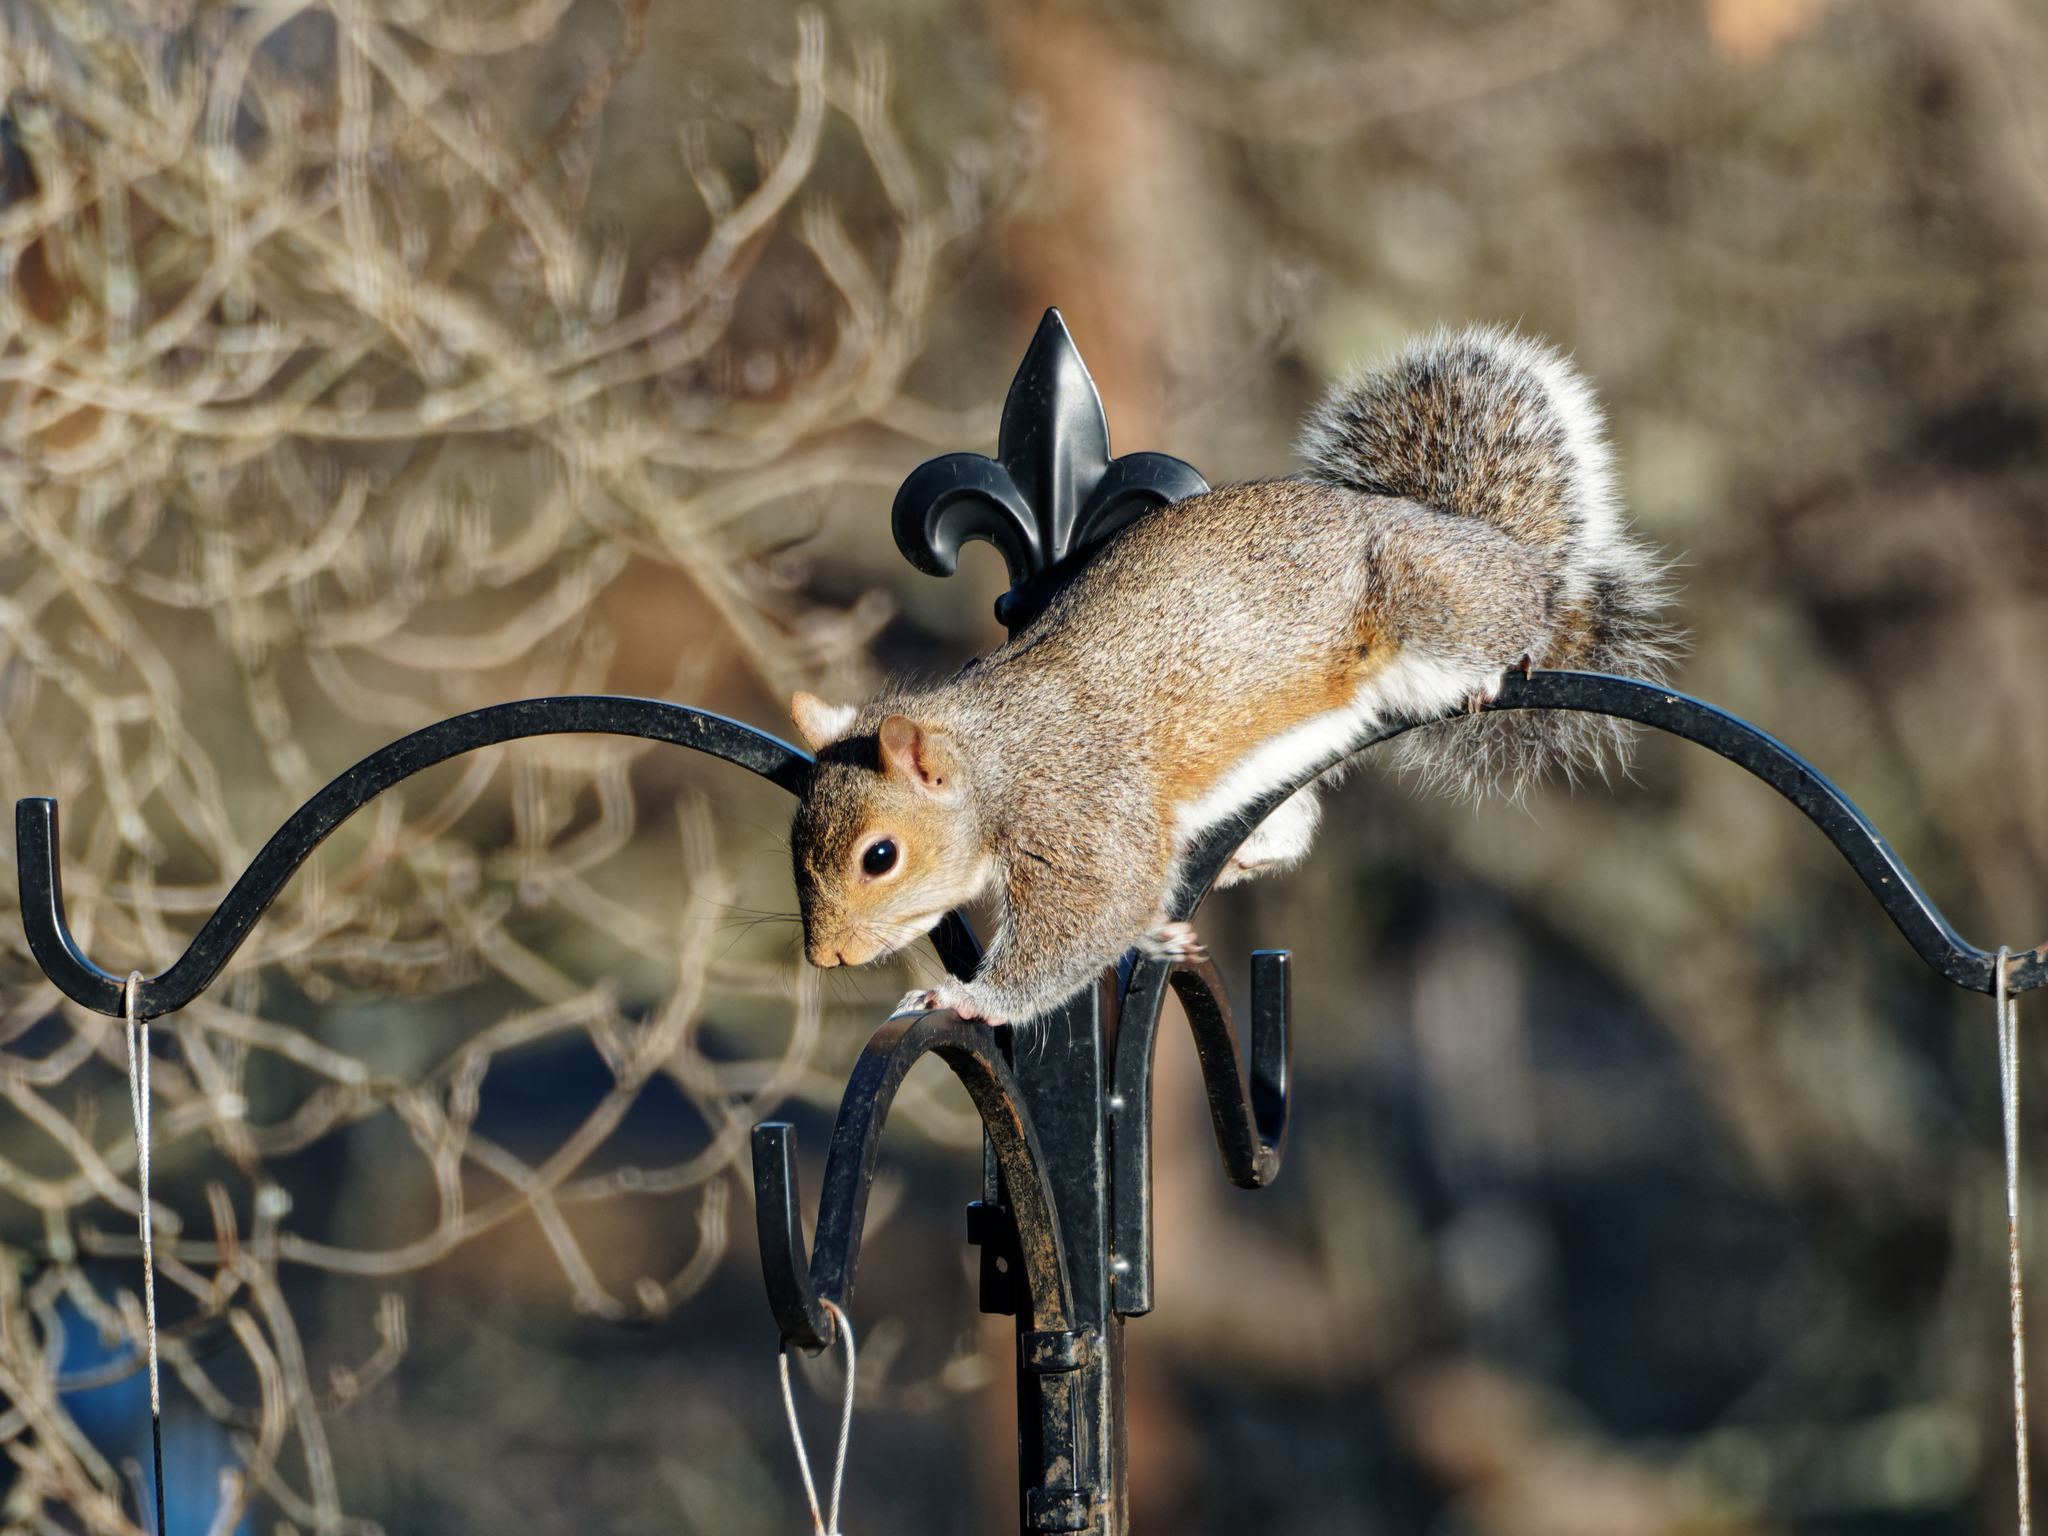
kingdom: Animalia
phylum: Chordata
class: Mammalia
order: Rodentia
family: Sciuridae
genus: Sciurus
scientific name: Sciurus carolinensis
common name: Eastern gray squirrel
